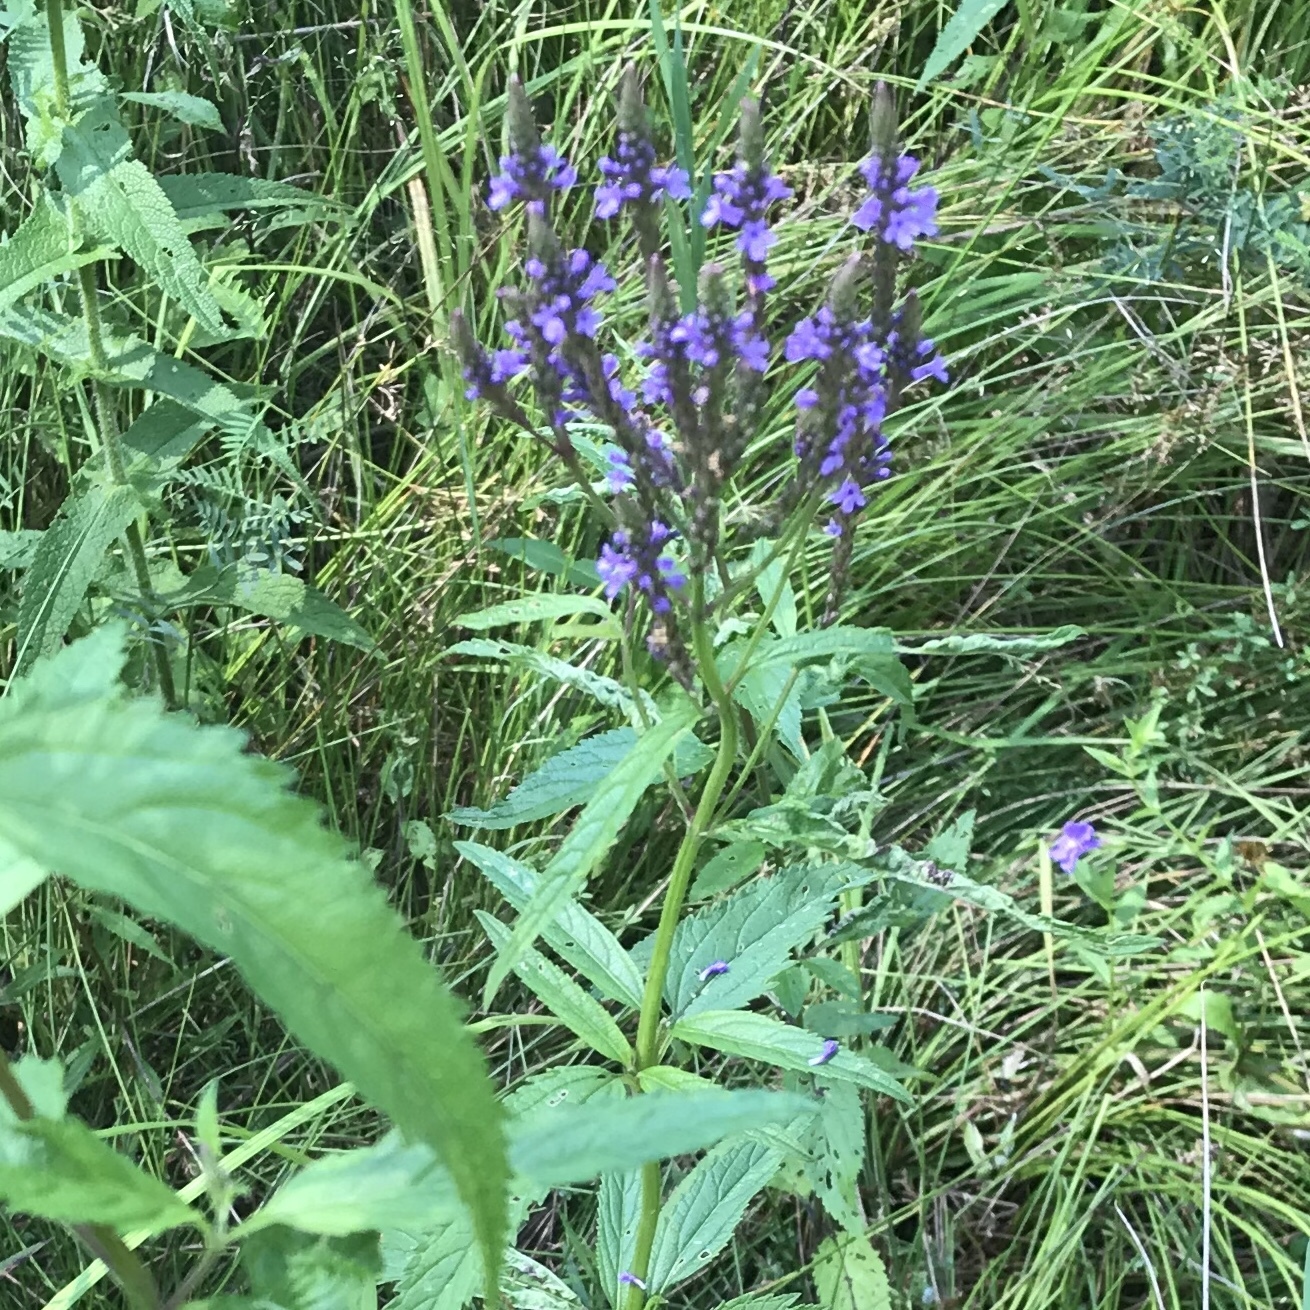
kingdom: Plantae
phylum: Tracheophyta
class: Magnoliopsida
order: Lamiales
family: Verbenaceae
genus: Verbena
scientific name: Verbena hastata
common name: American blue vervain
